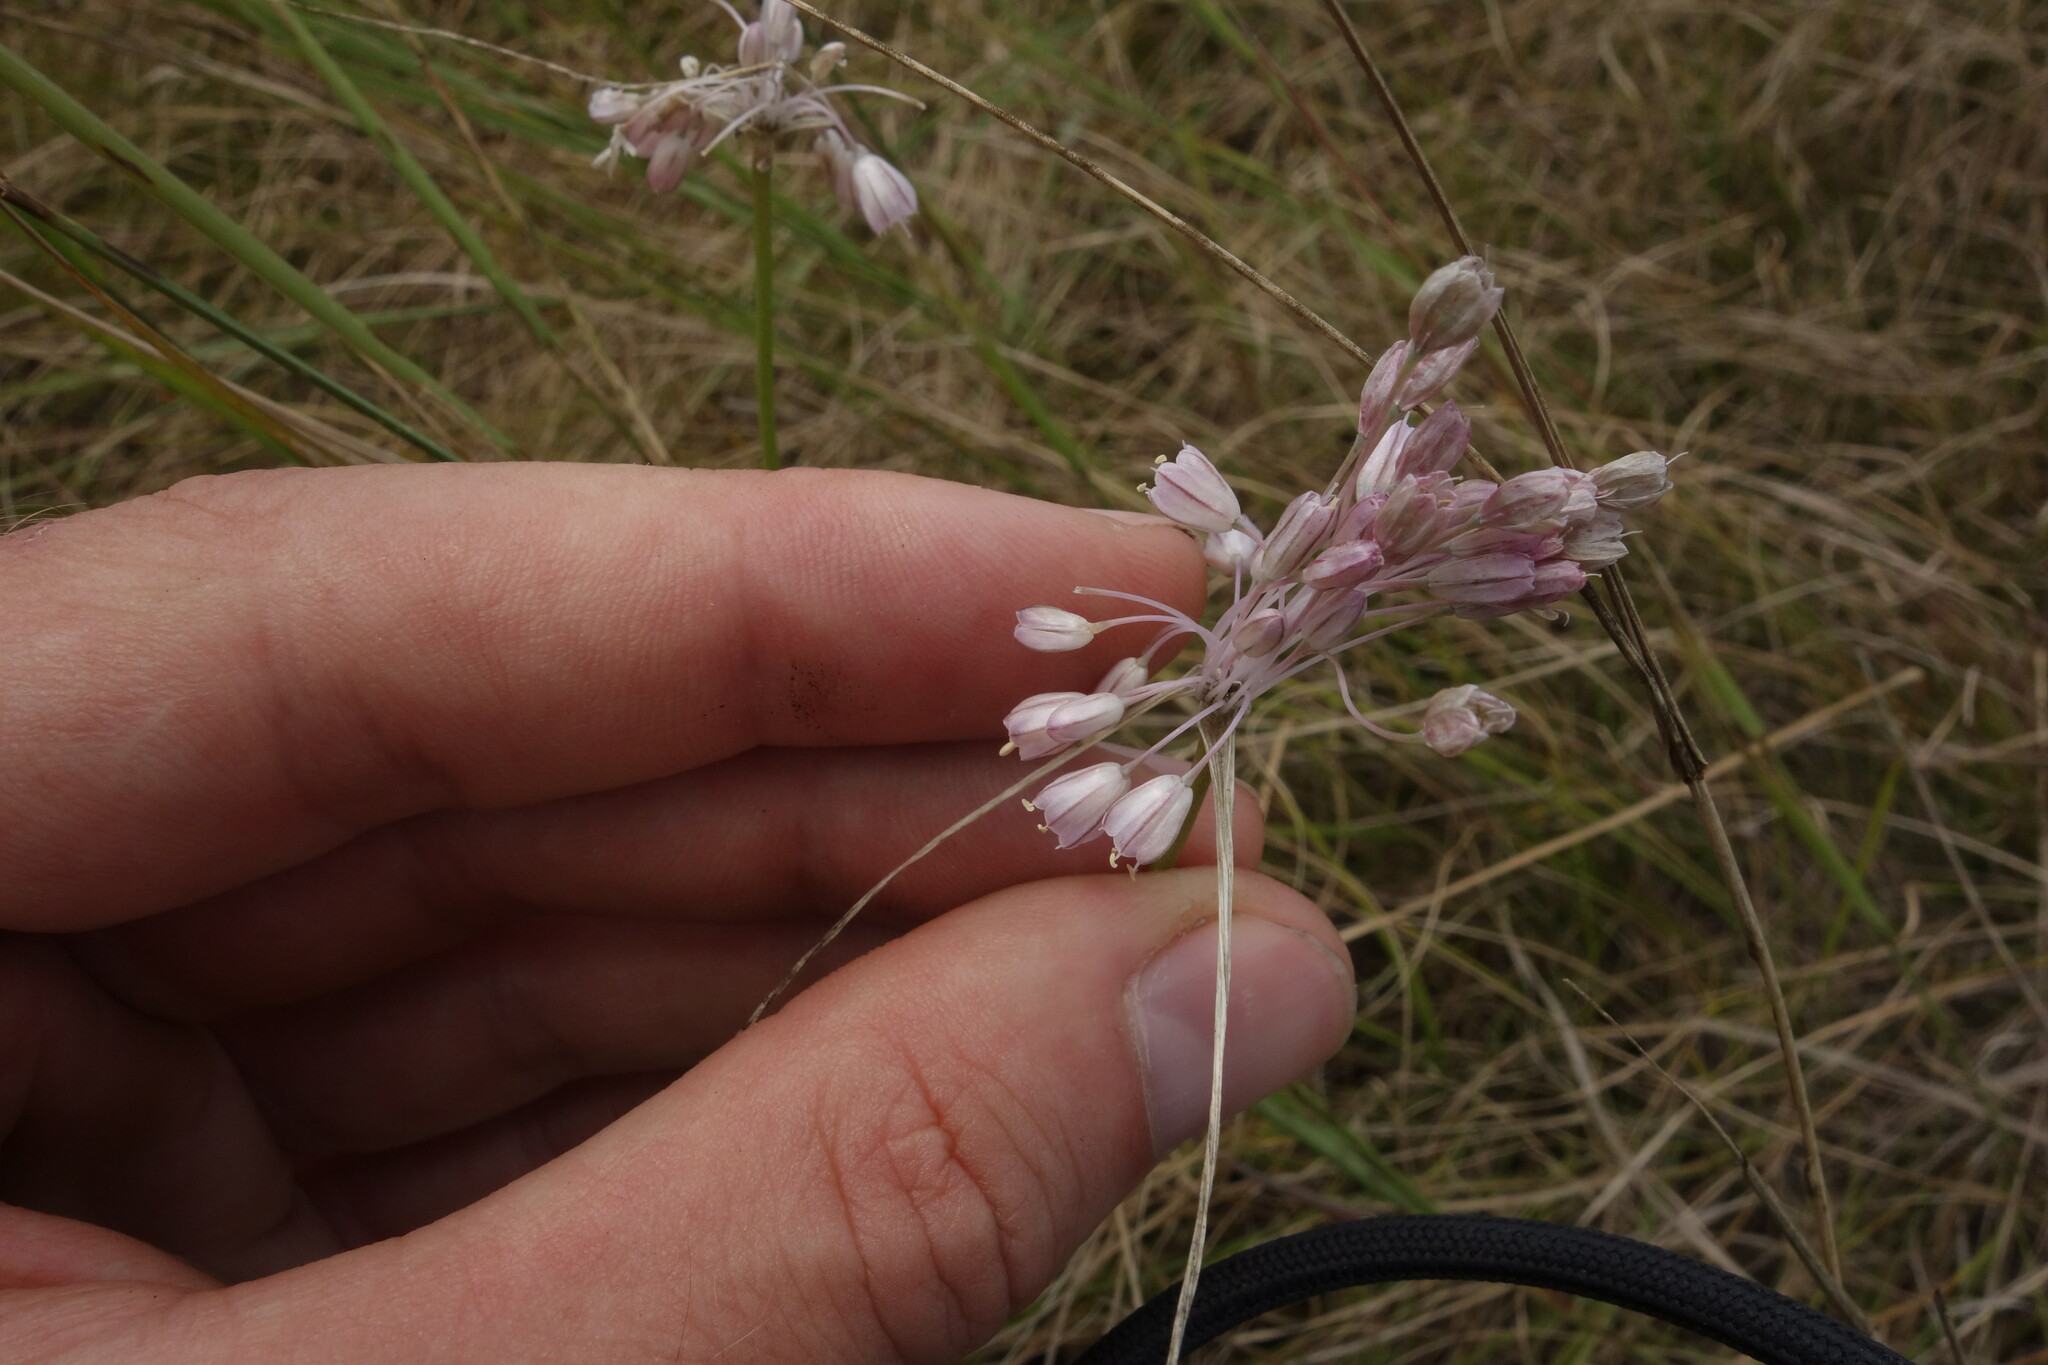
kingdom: Plantae
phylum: Tracheophyta
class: Liliopsida
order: Asparagales
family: Amaryllidaceae
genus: Allium
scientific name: Allium podolicum
